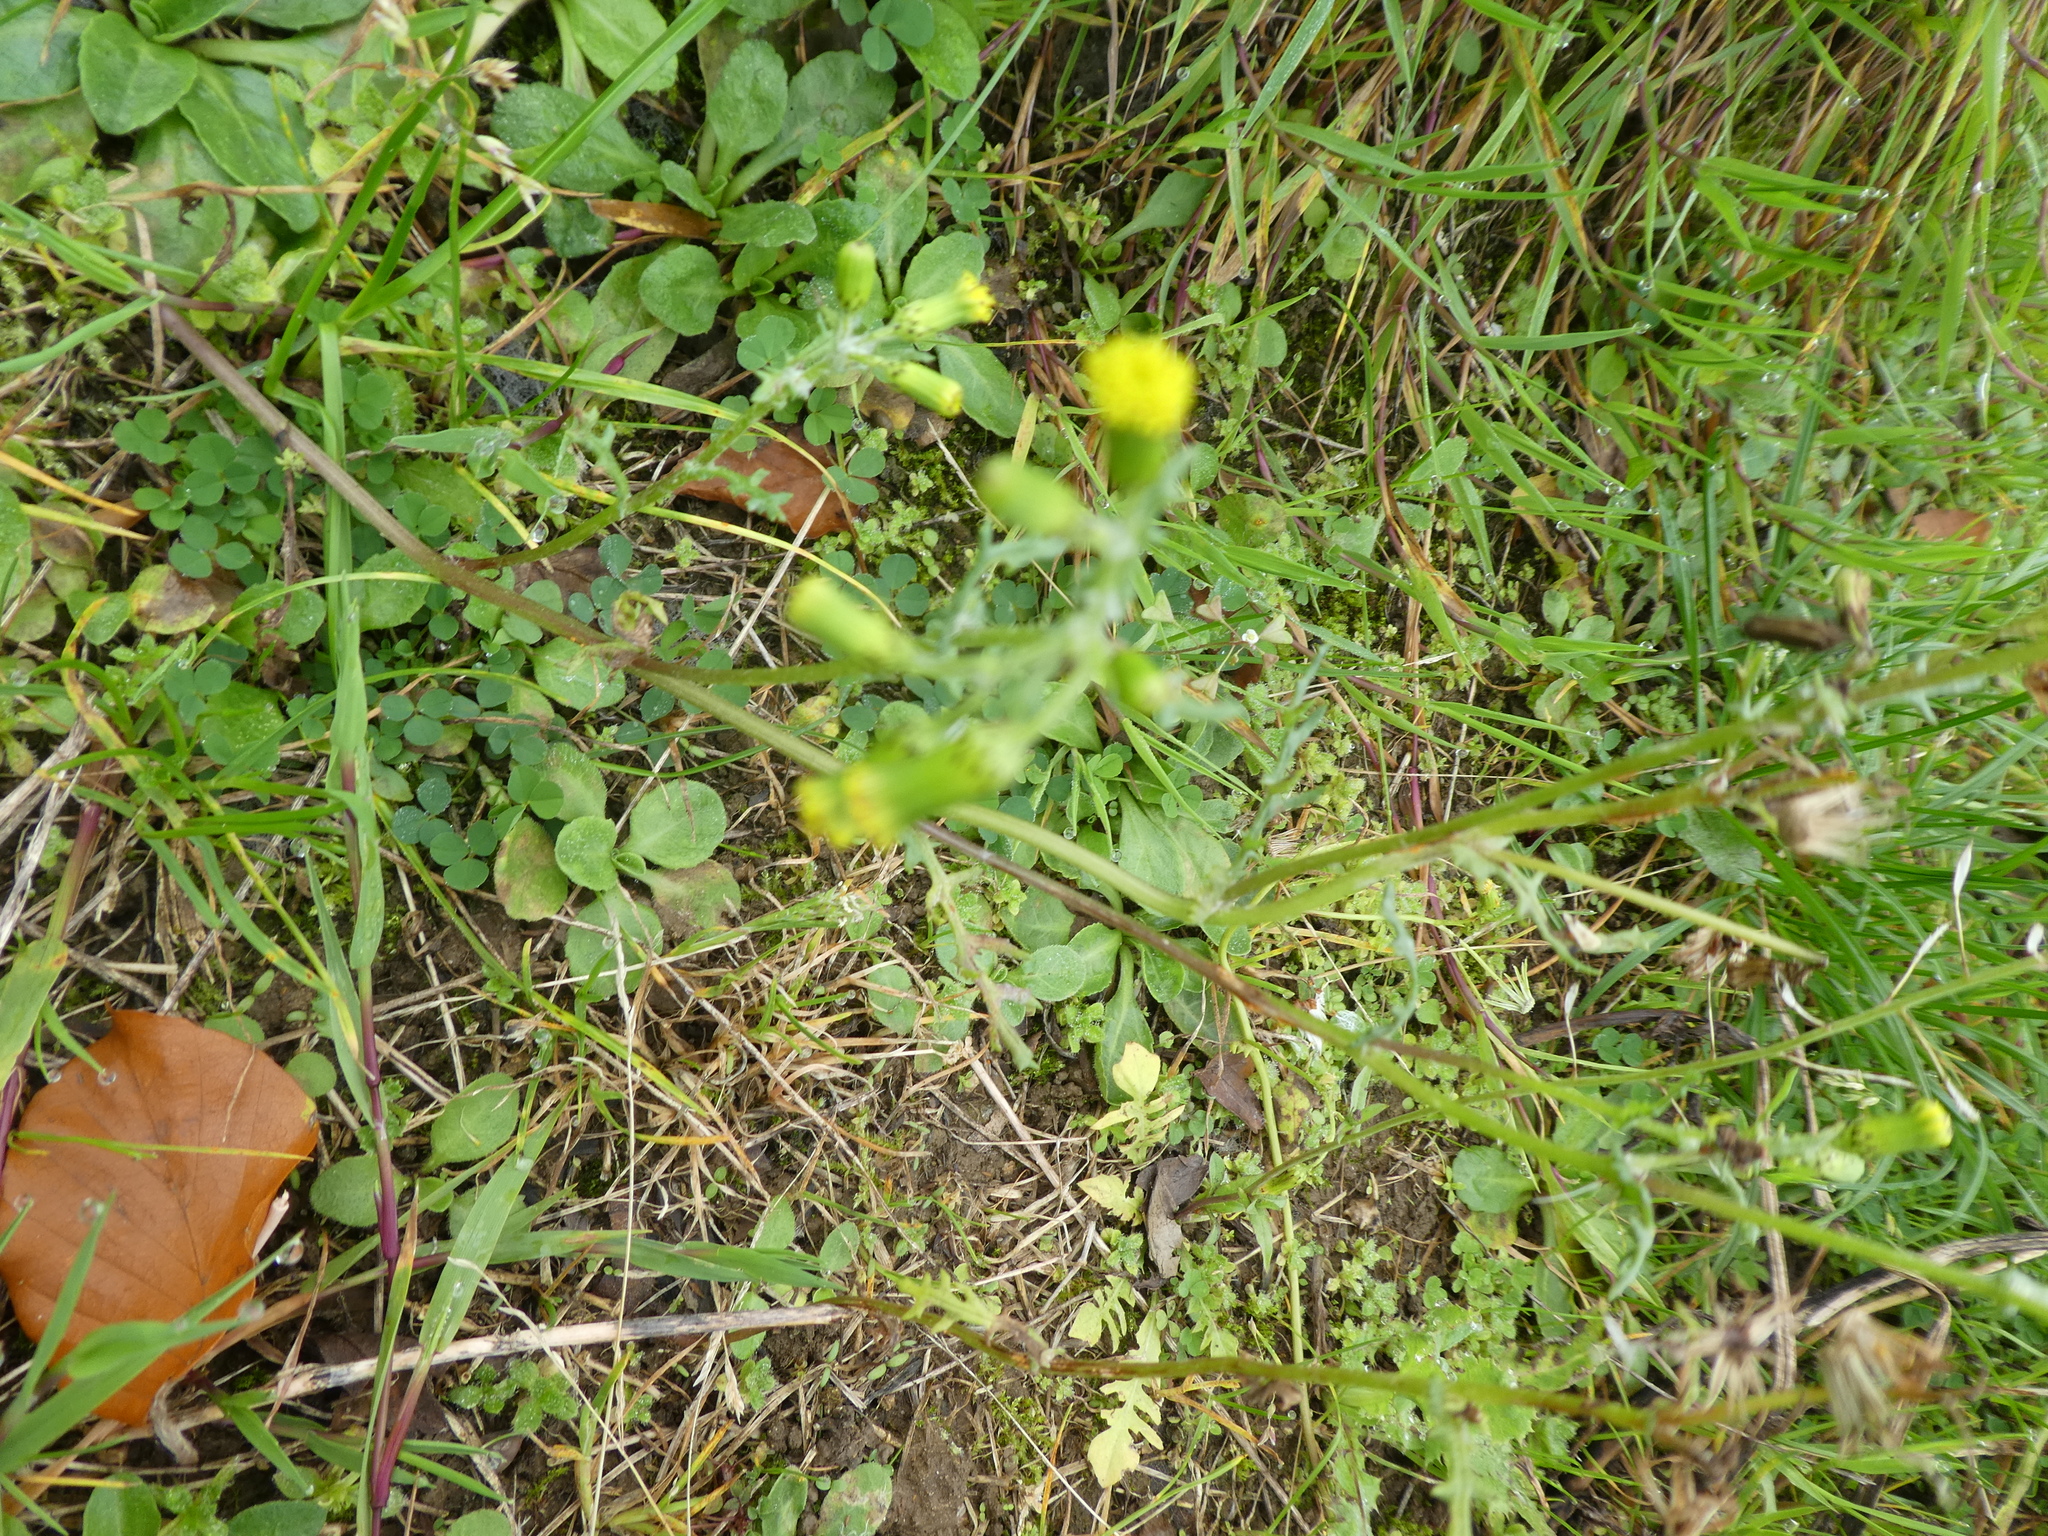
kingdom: Plantae
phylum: Tracheophyta
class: Magnoliopsida
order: Asterales
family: Asteraceae
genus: Senecio
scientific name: Senecio vulgaris
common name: Old-man-in-the-spring
